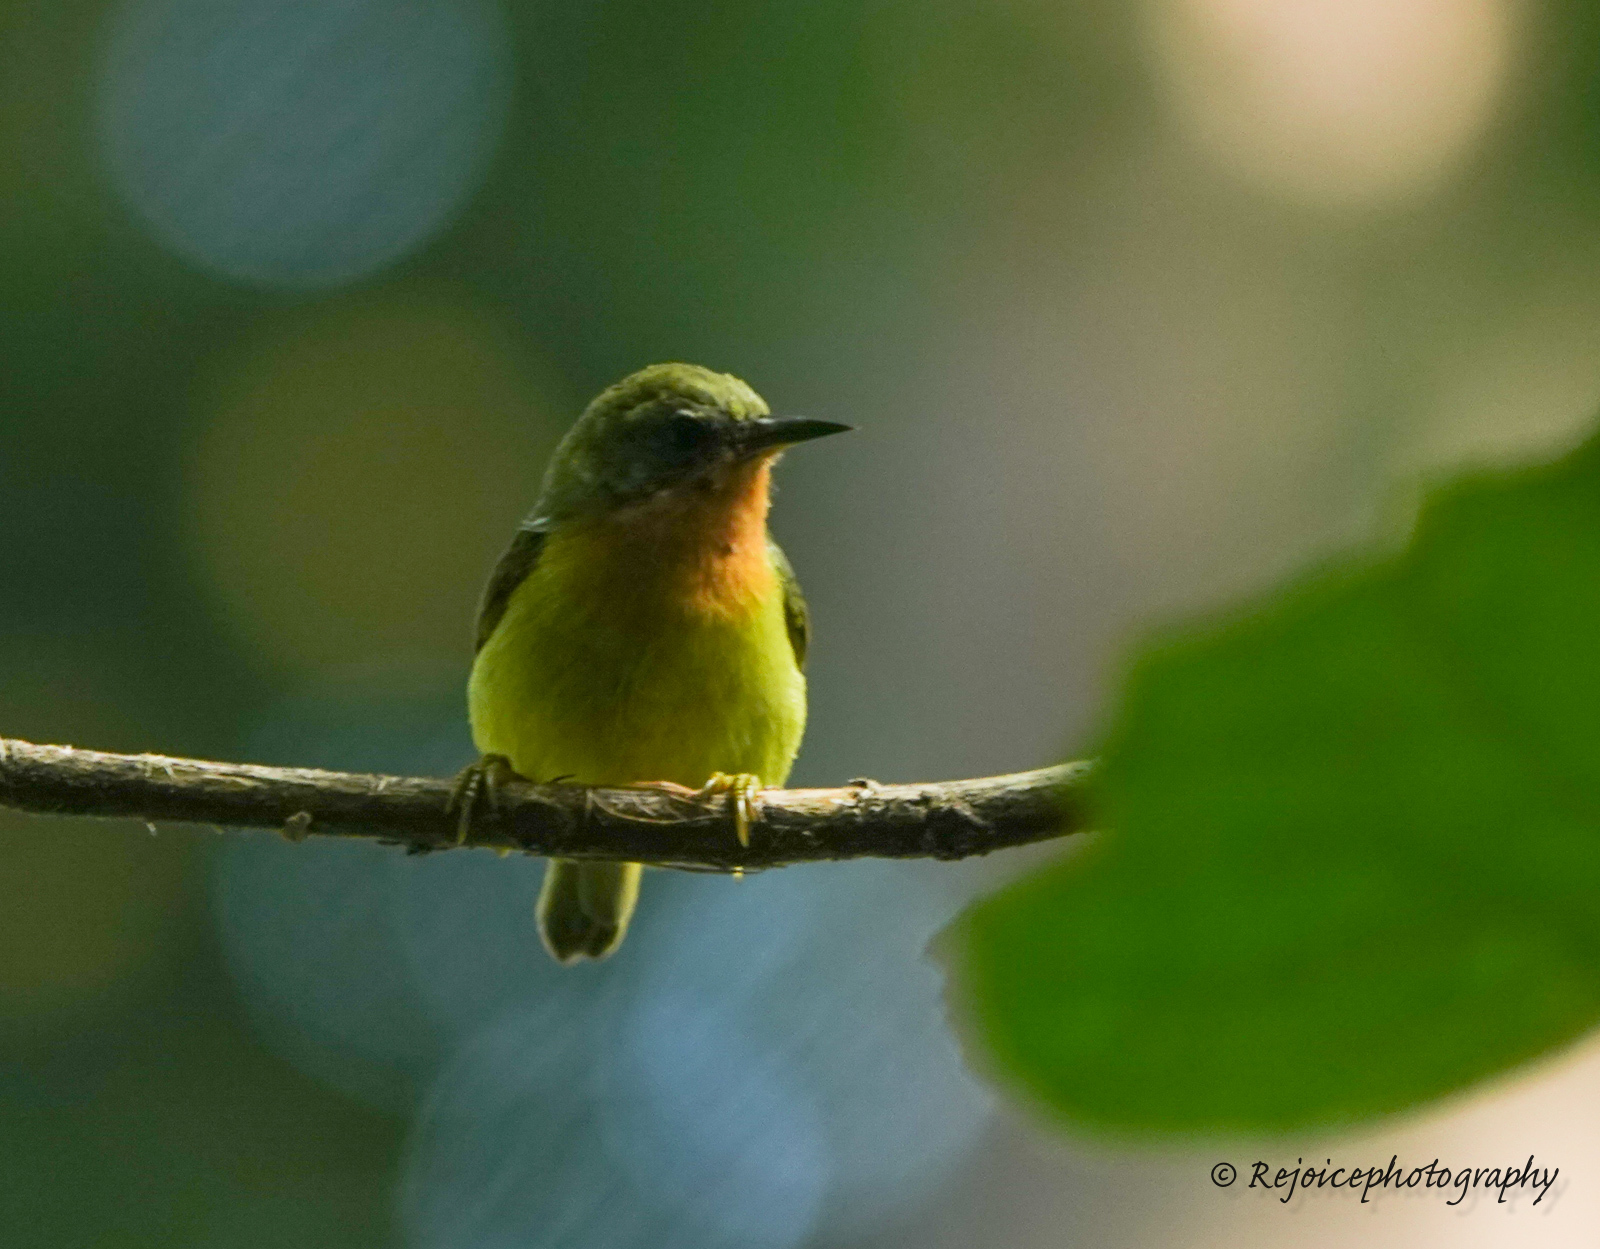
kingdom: Animalia
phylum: Chordata
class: Aves
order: Passeriformes
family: Nectariniidae
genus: Chalcoparia
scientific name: Chalcoparia singalensis
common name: Ruby-cheeked sunbird
